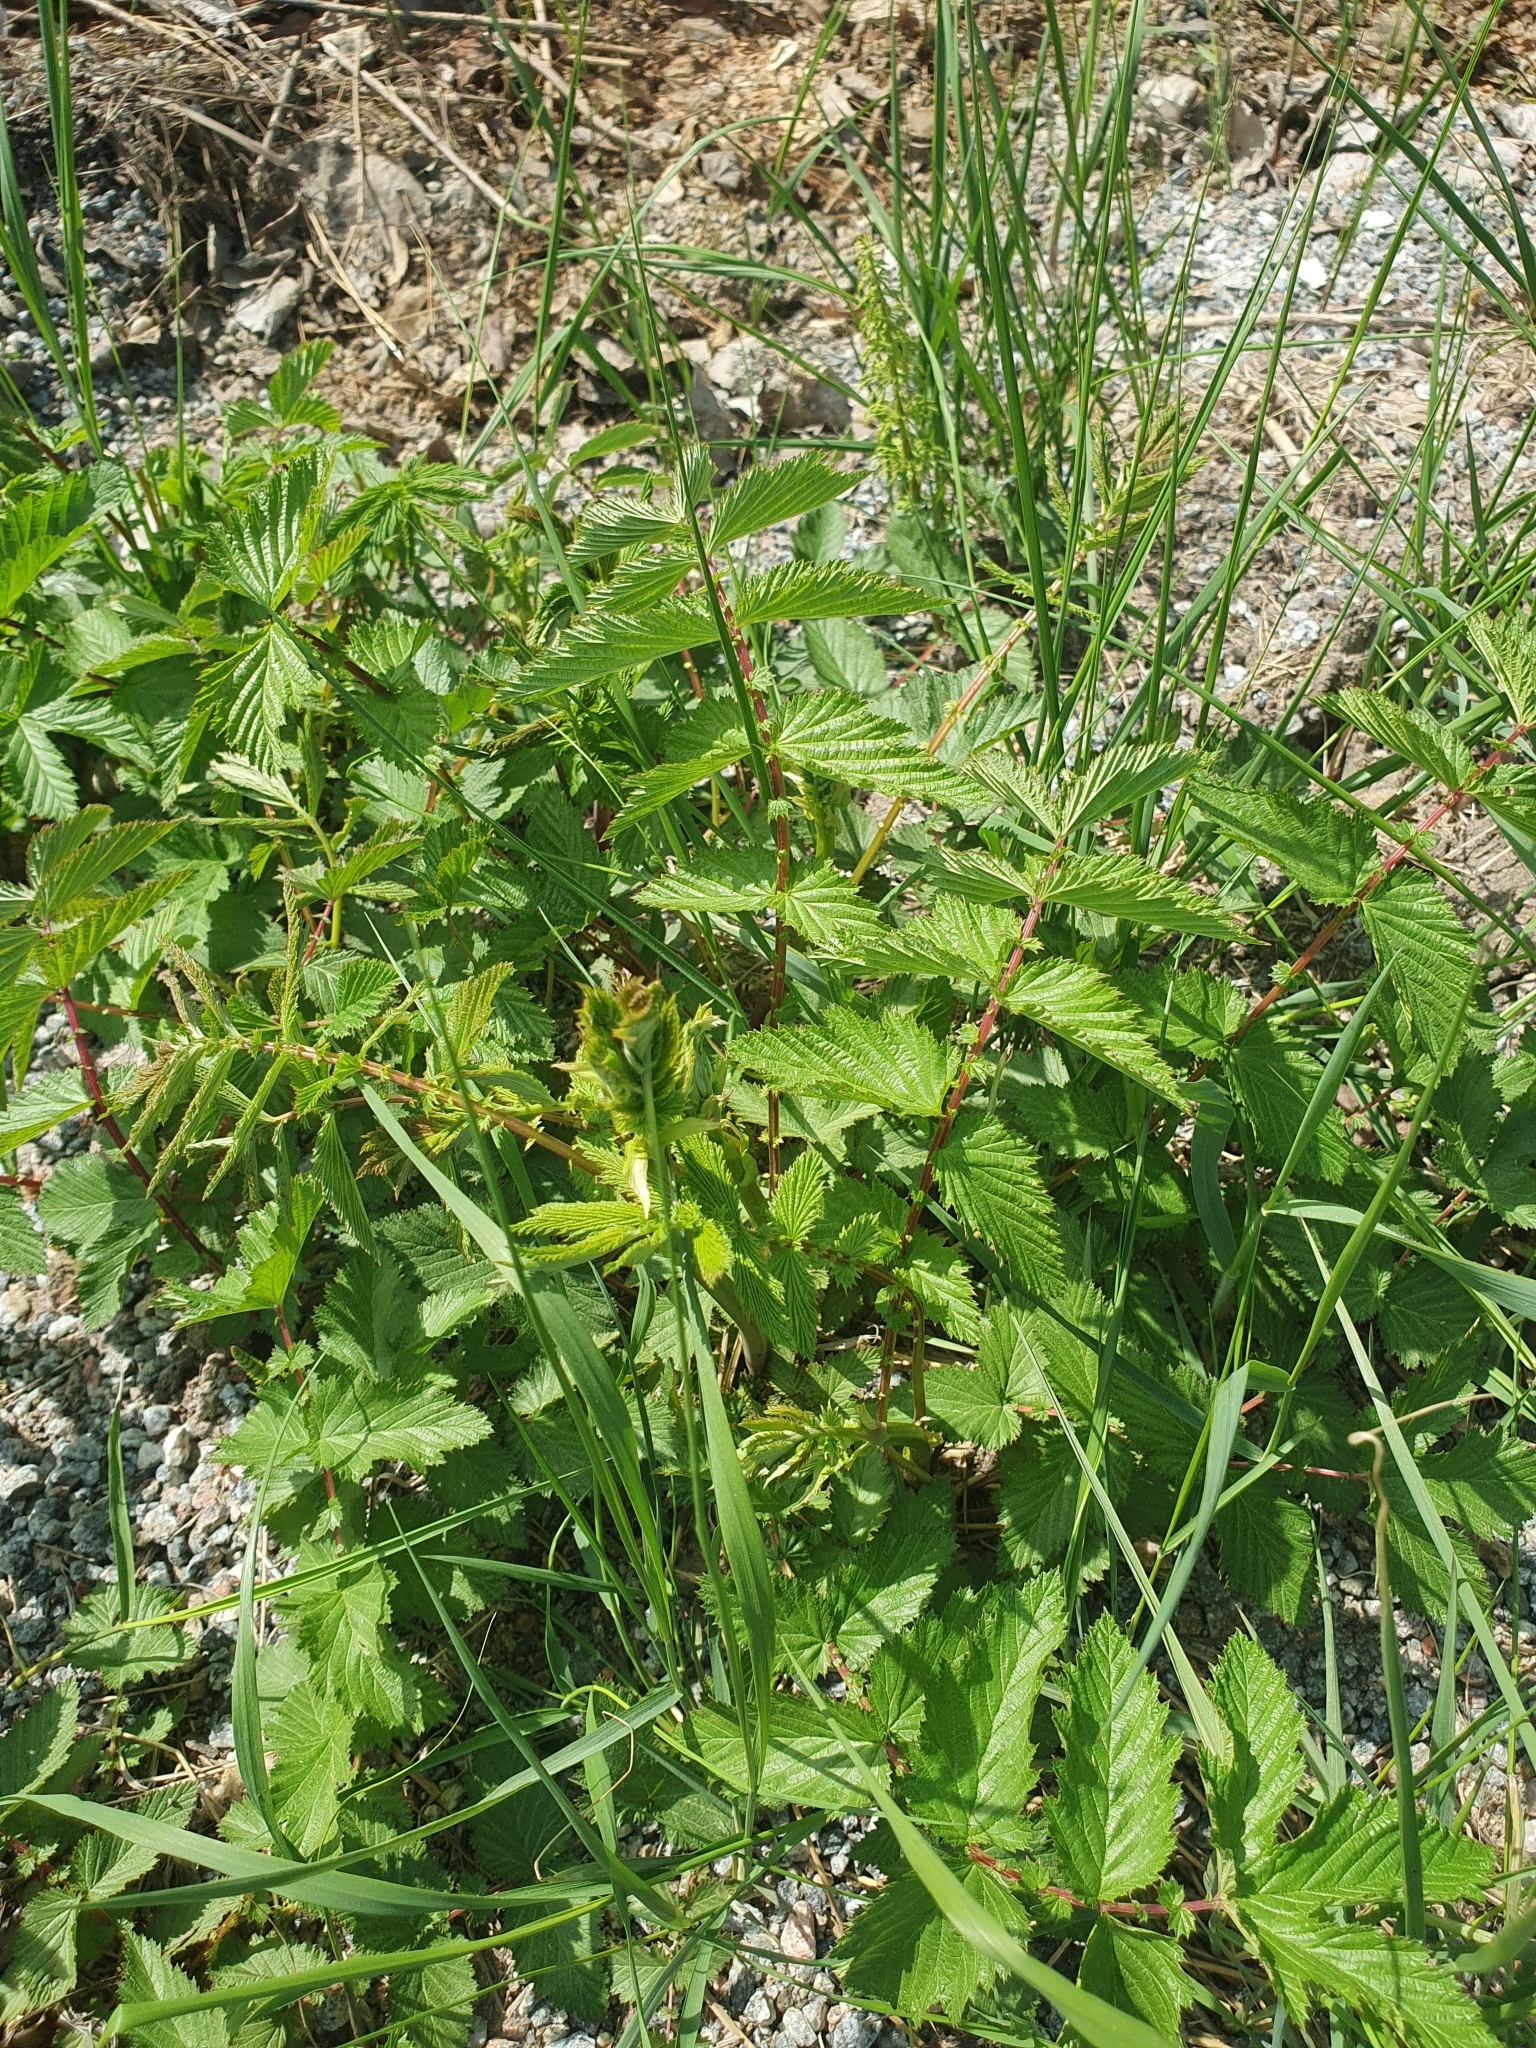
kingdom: Plantae
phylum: Tracheophyta
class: Magnoliopsida
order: Rosales
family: Rosaceae
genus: Filipendula
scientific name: Filipendula ulmaria
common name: Meadowsweet
